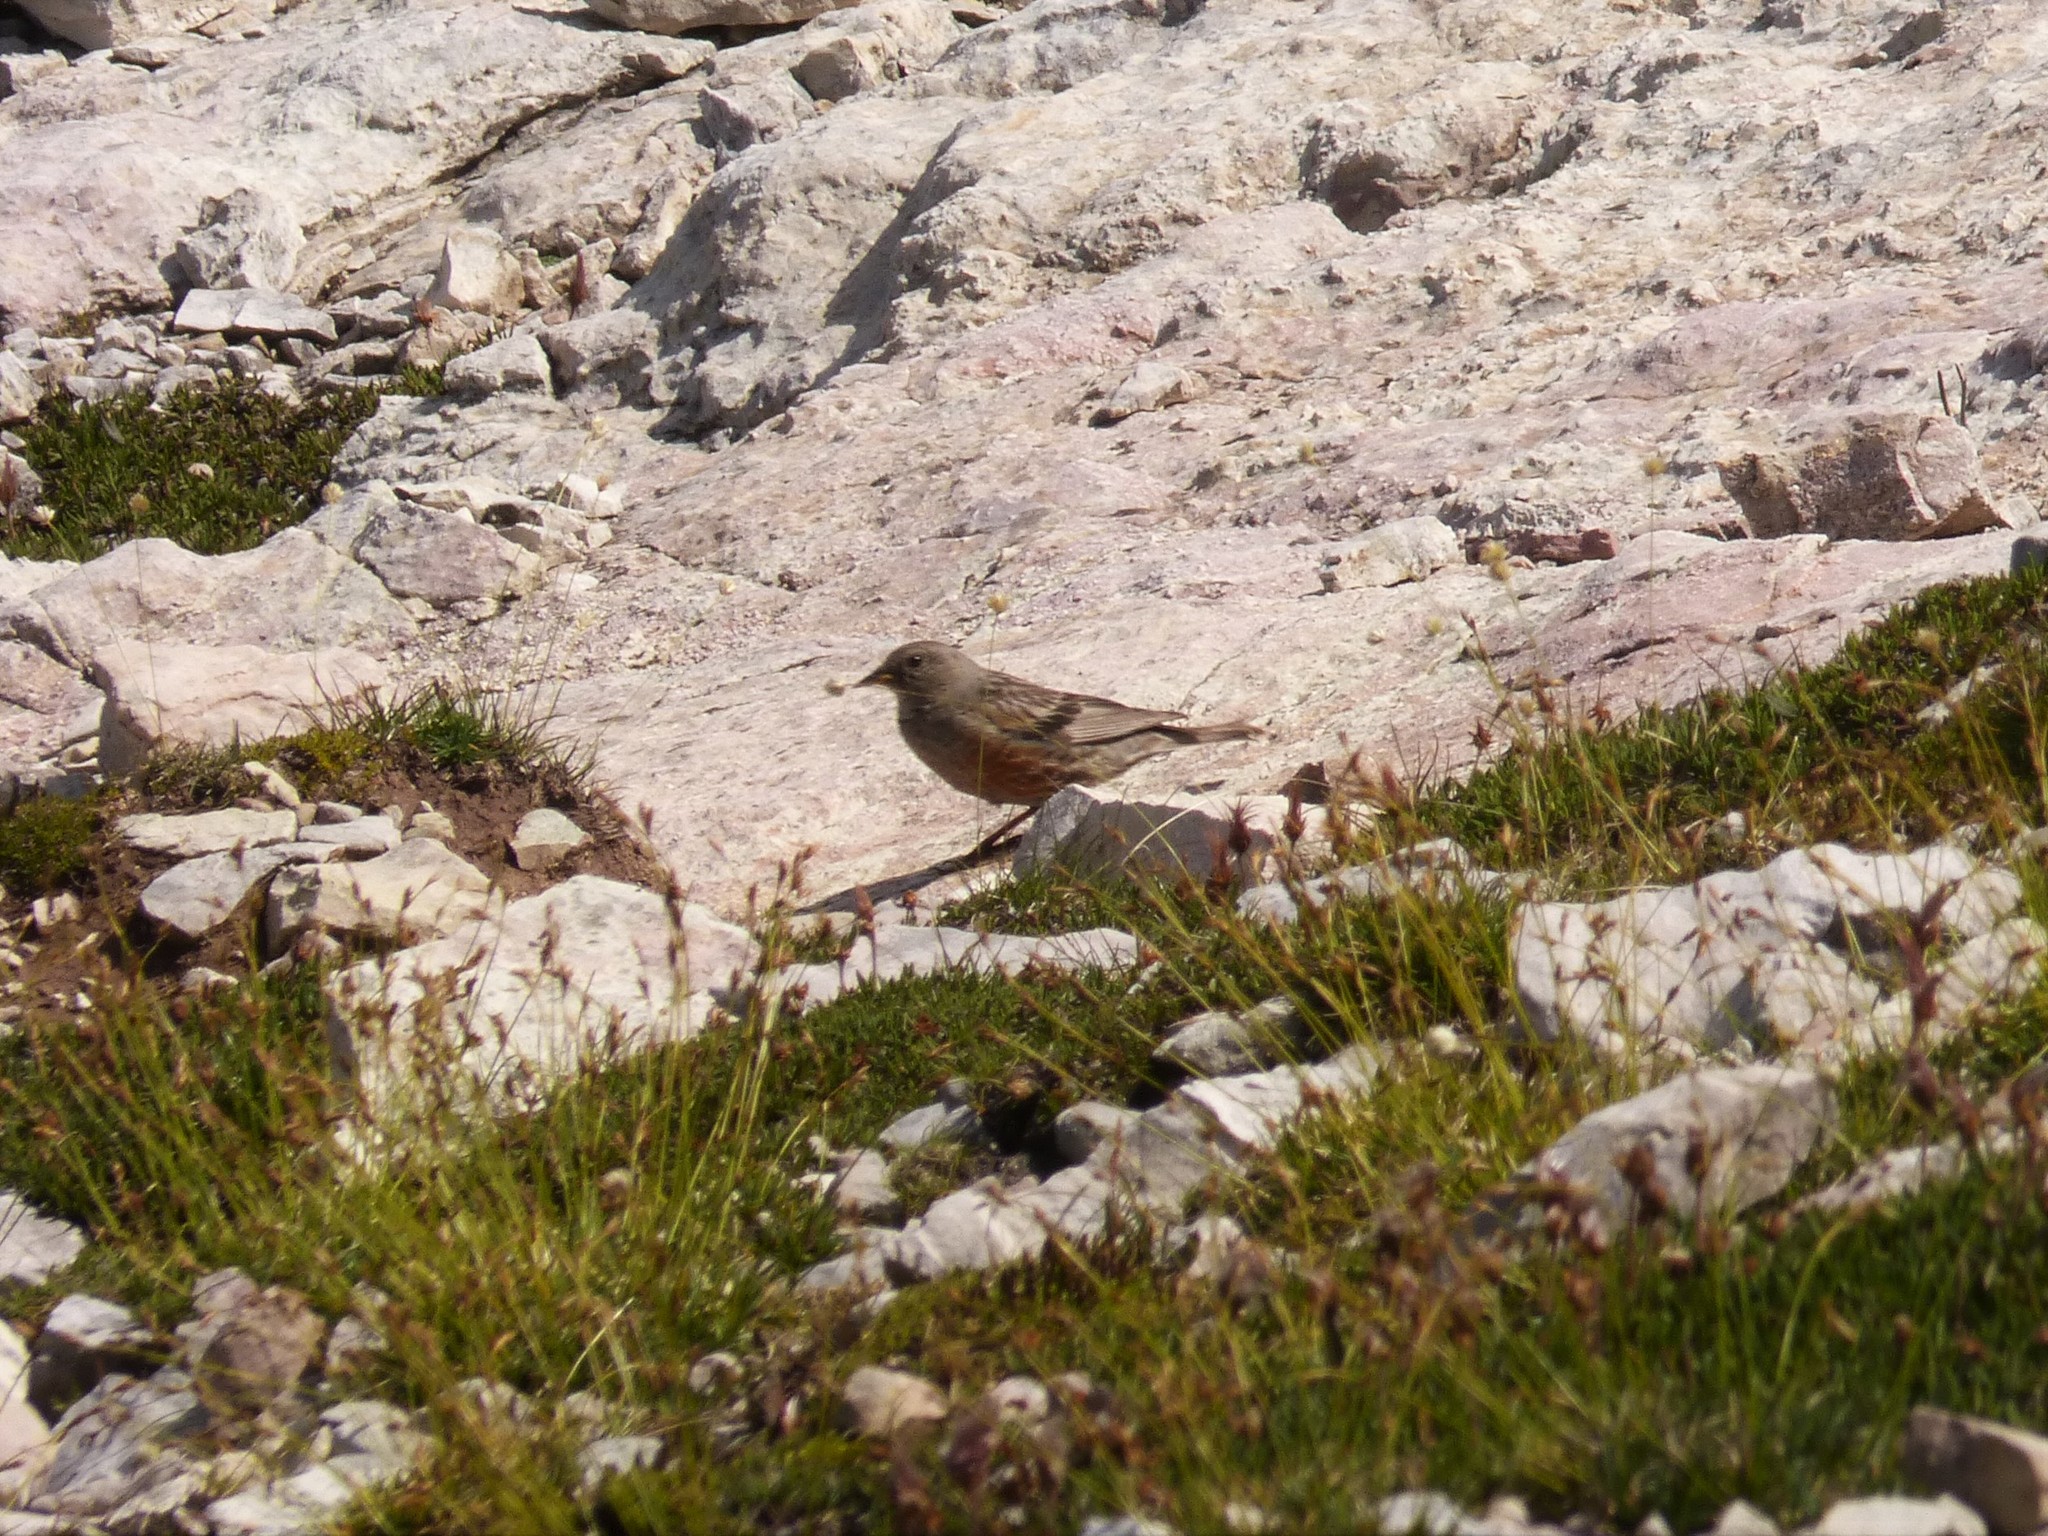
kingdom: Animalia
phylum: Chordata
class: Aves
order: Passeriformes
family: Prunellidae
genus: Prunella
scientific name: Prunella collaris
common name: Alpine accentor
